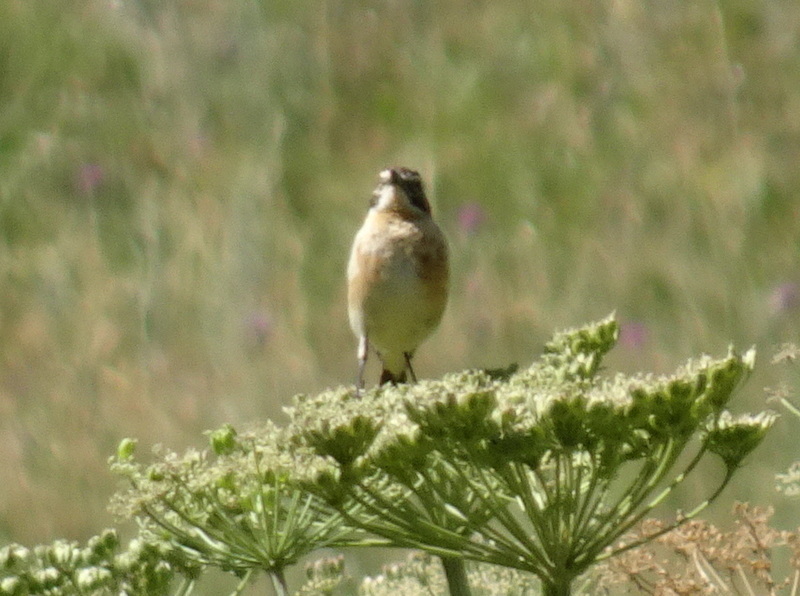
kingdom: Animalia
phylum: Chordata
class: Aves
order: Passeriformes
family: Muscicapidae
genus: Saxicola
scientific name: Saxicola rubetra
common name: Whinchat
